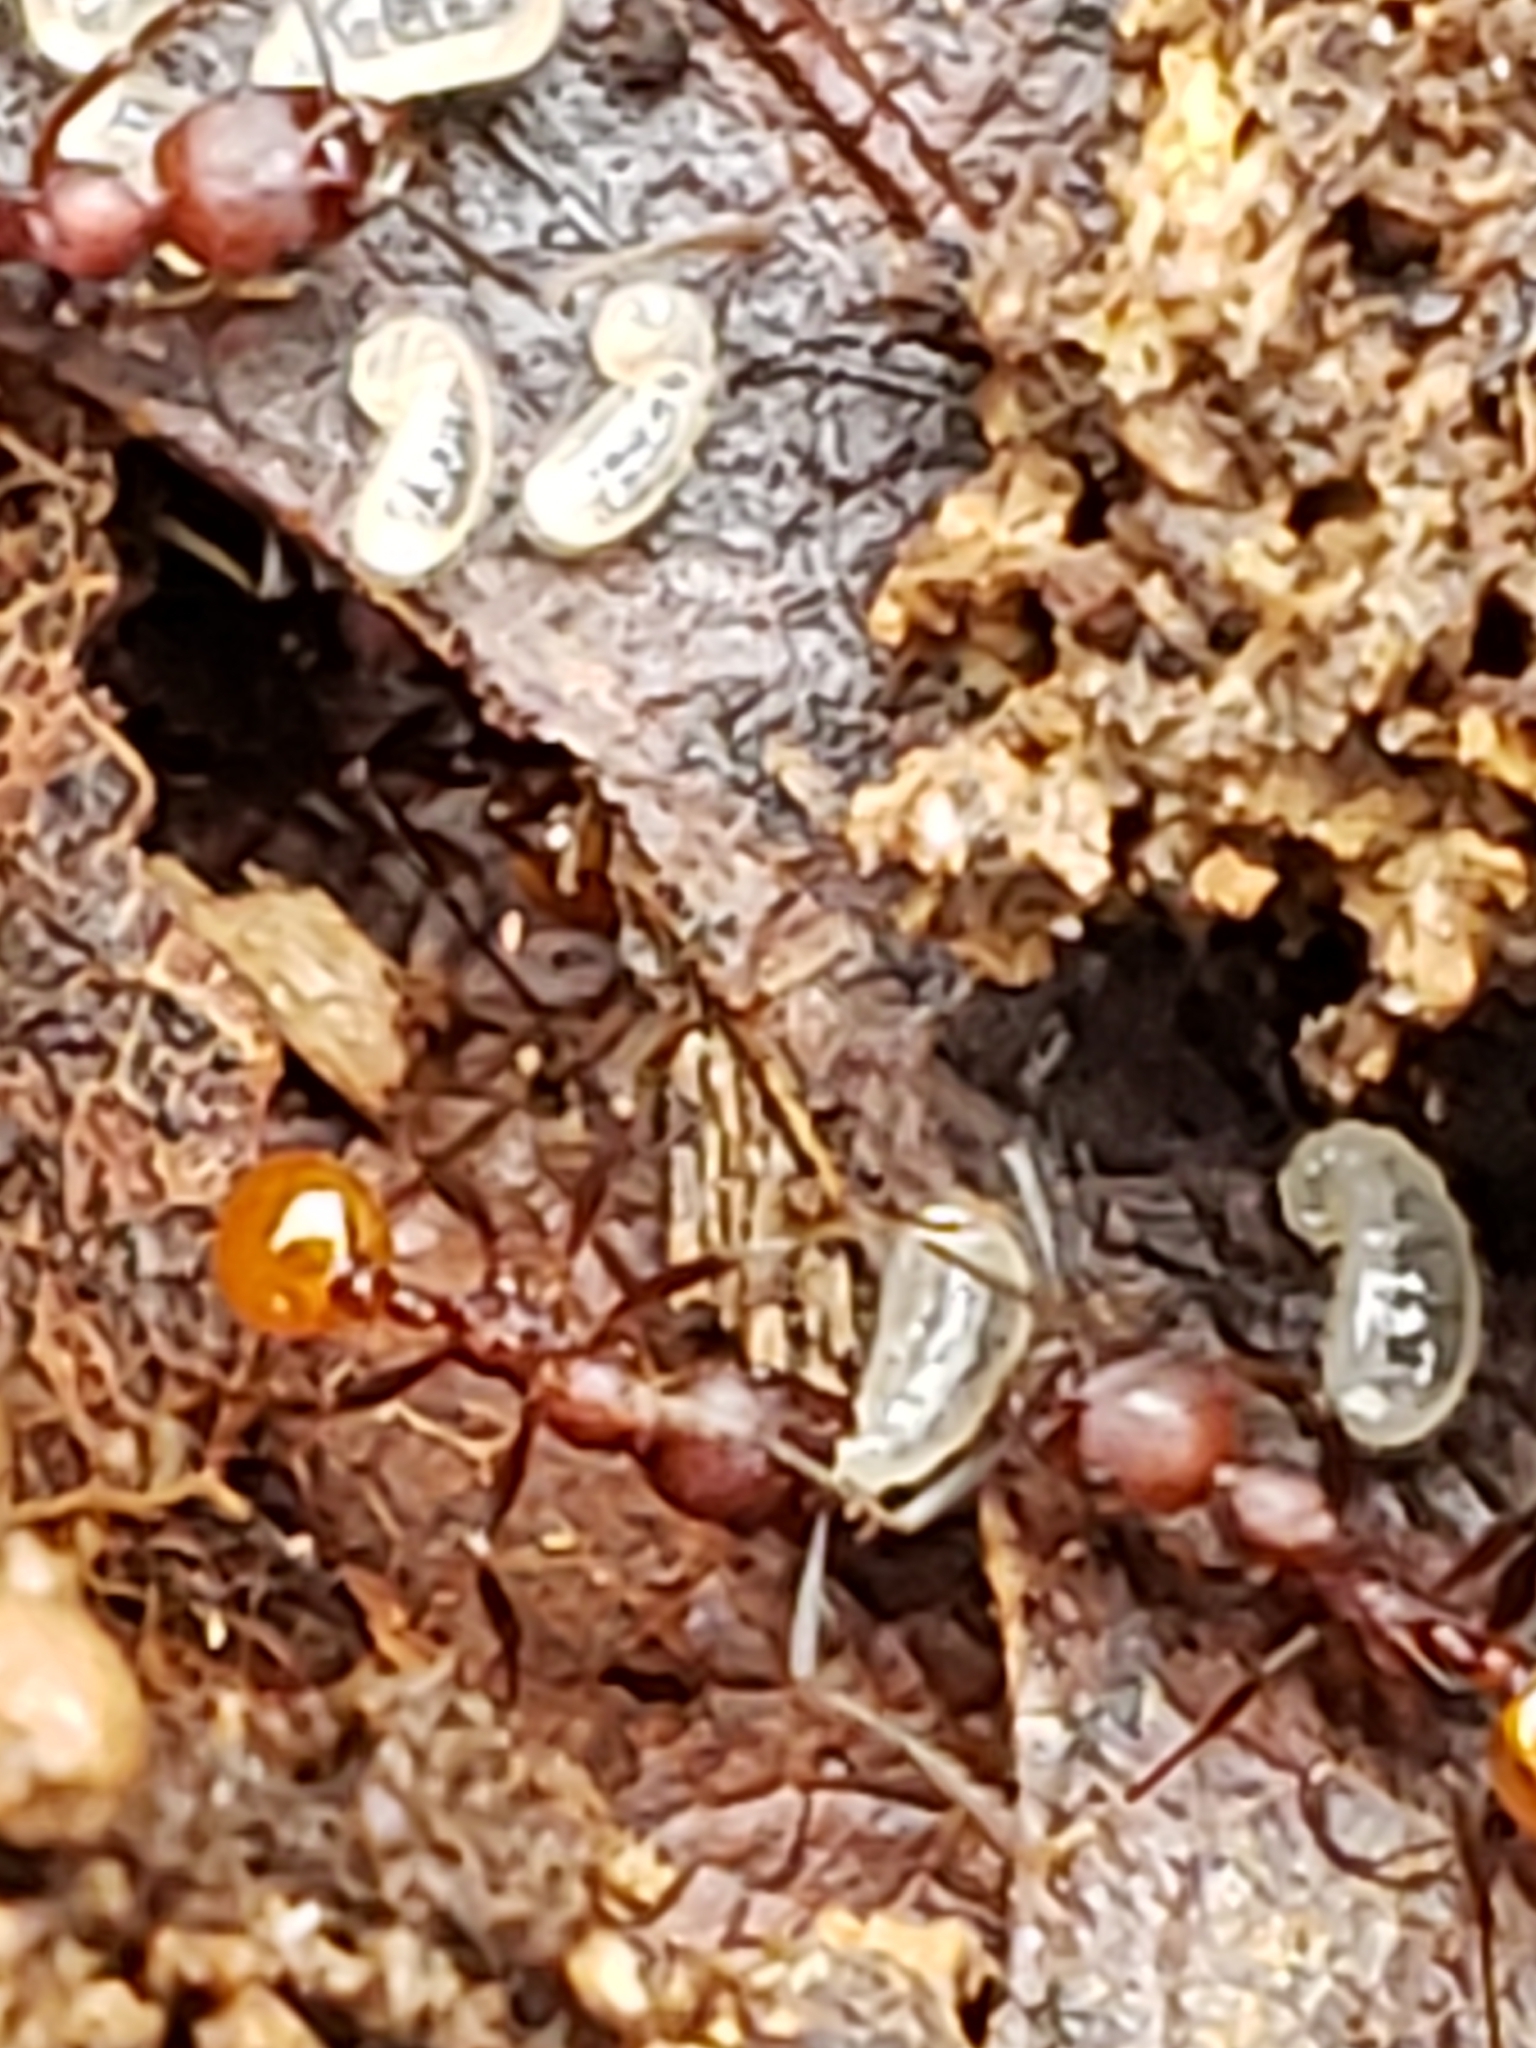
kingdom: Animalia
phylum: Arthropoda
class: Insecta
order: Hymenoptera
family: Formicidae
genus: Aphaenogaster
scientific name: Aphaenogaster tennesseensis
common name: Tennessee thread-waisted ant
